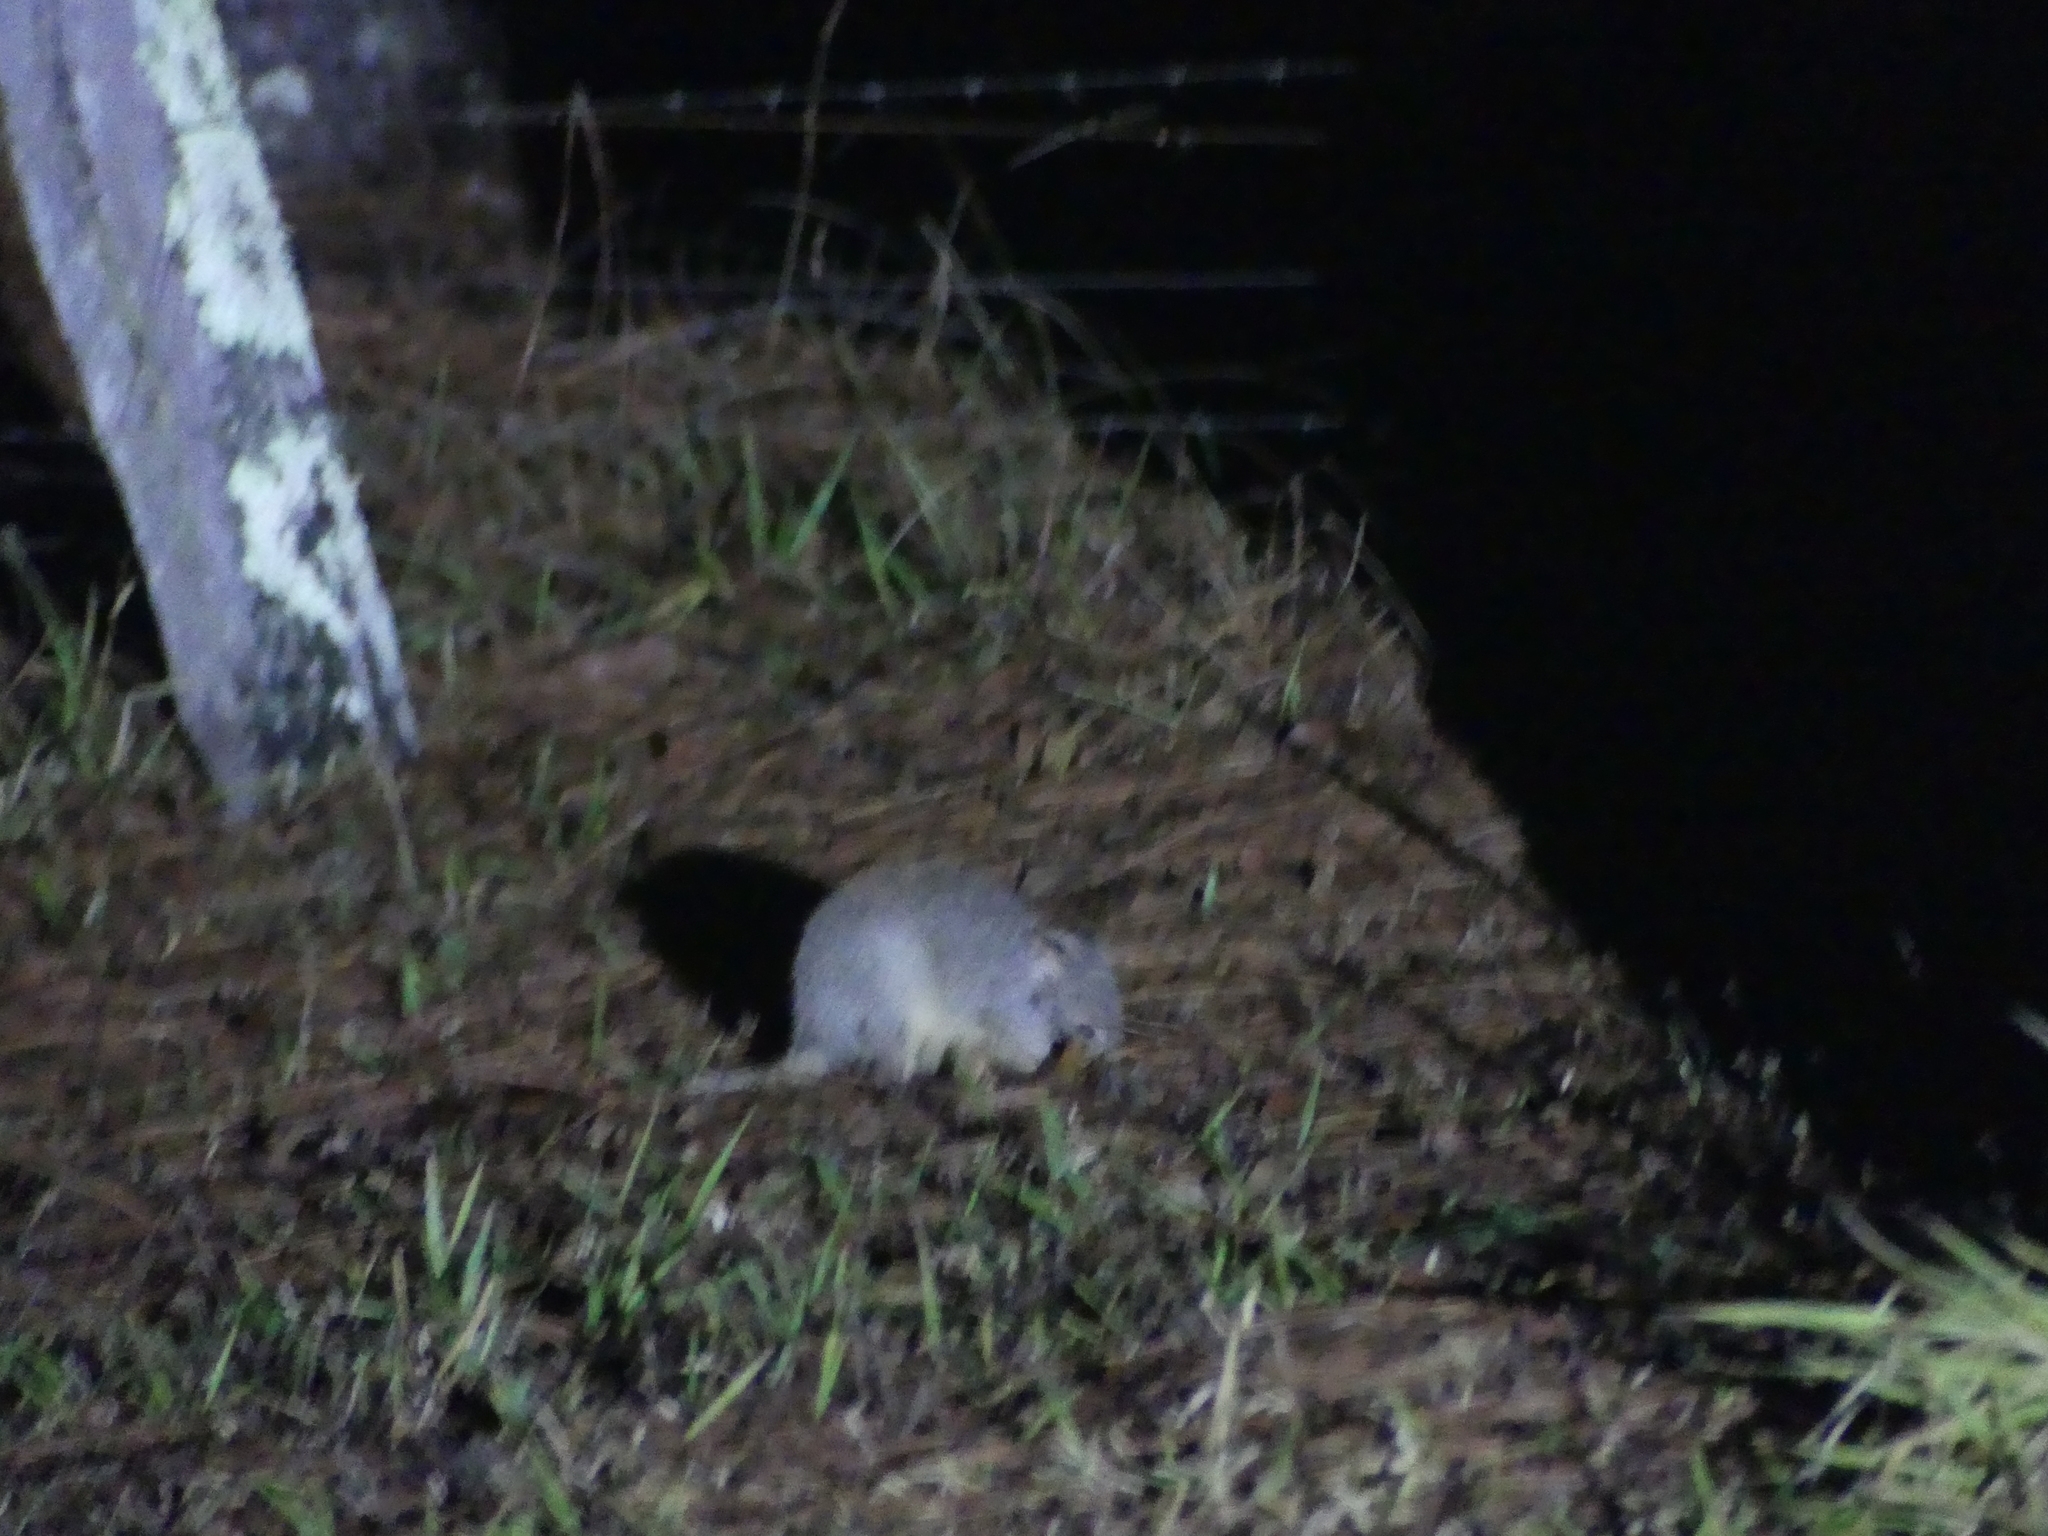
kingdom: Animalia
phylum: Chordata
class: Mammalia
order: Diprotodontia
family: Potoroidae
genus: Aepyprymnus
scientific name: Aepyprymnus rufescens
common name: Rufous rat-kangaroo
